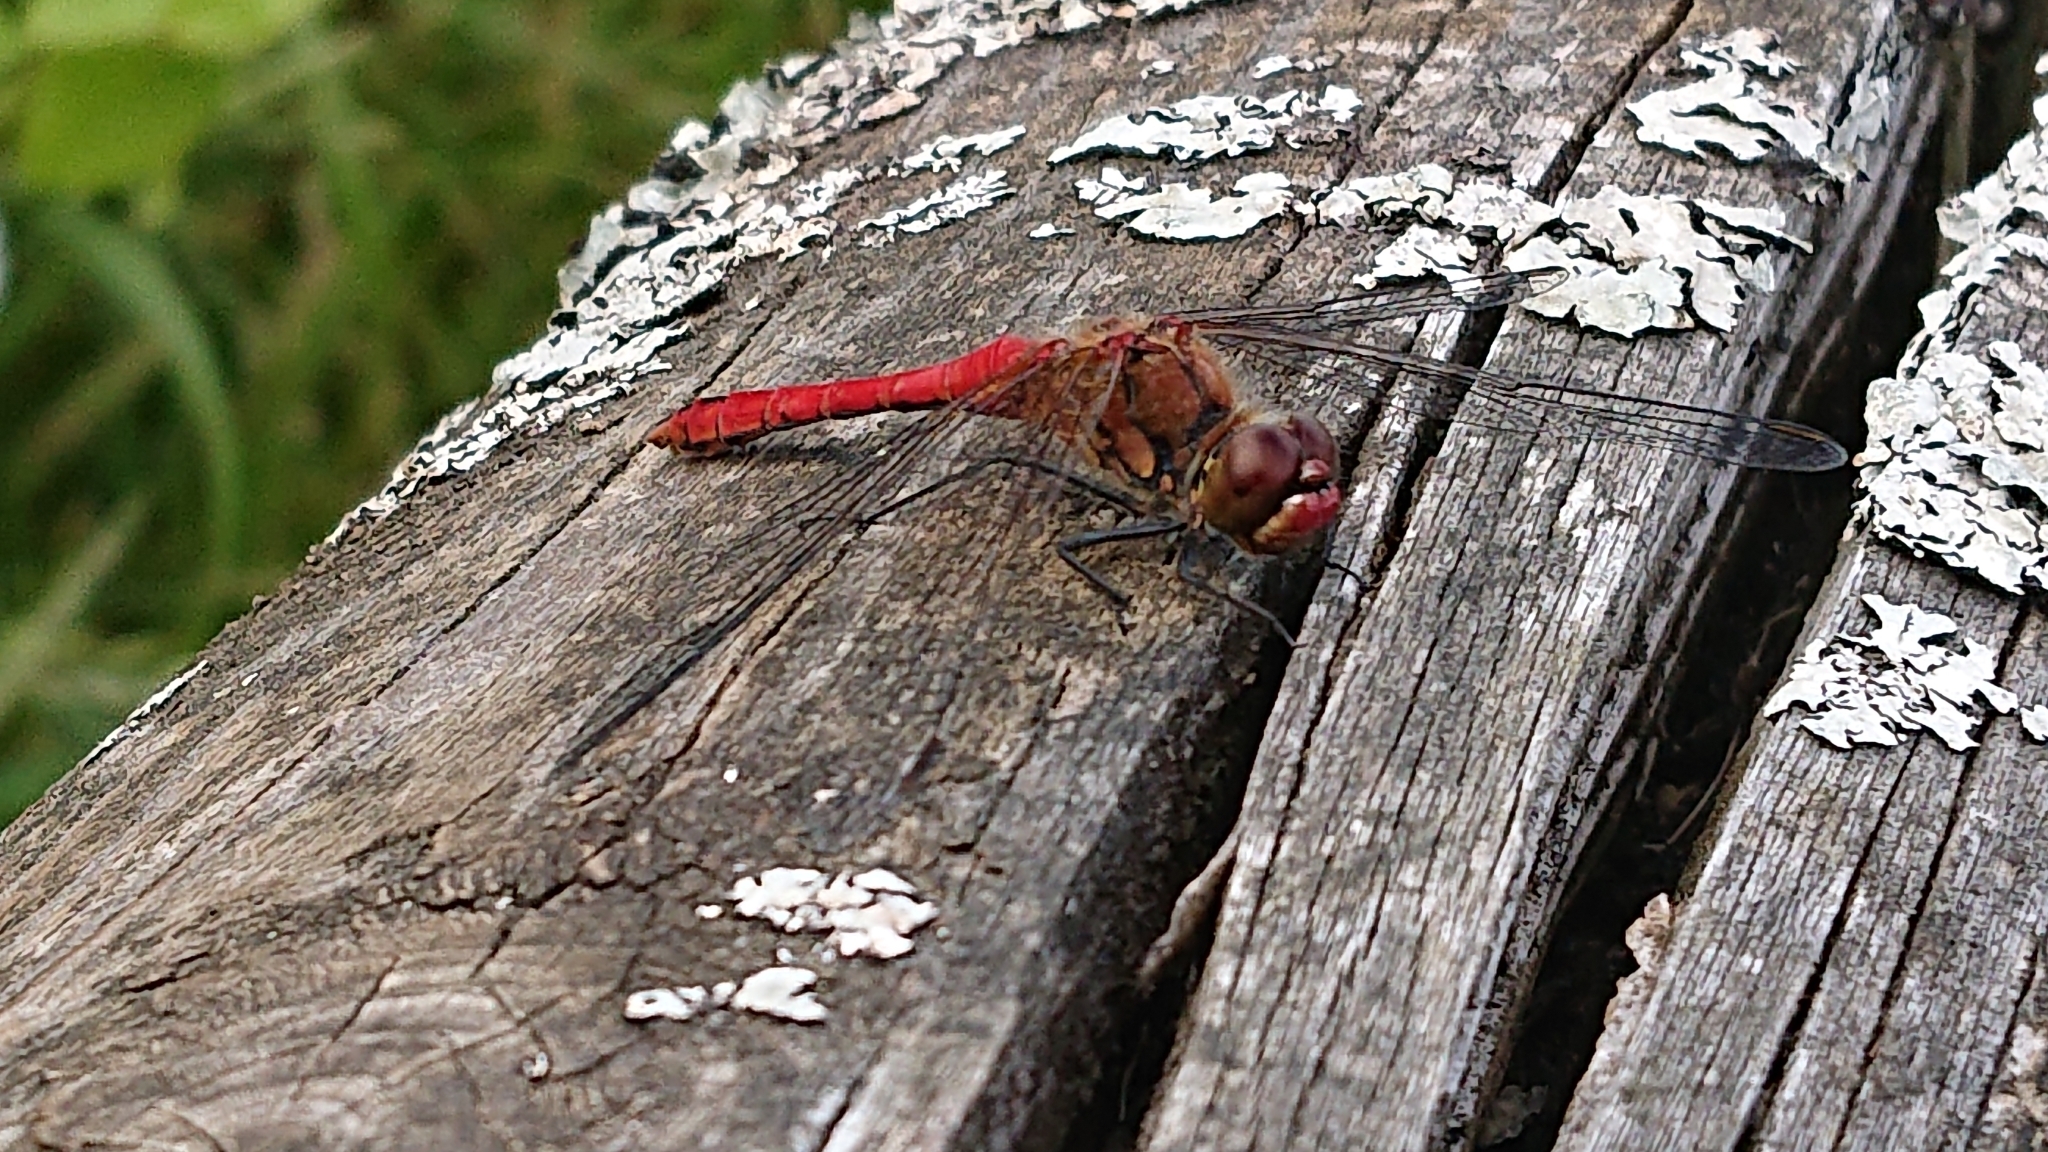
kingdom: Animalia
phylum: Arthropoda
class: Insecta
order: Odonata
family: Libellulidae
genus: Sympetrum
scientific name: Sympetrum sanguineum
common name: Ruddy darter
